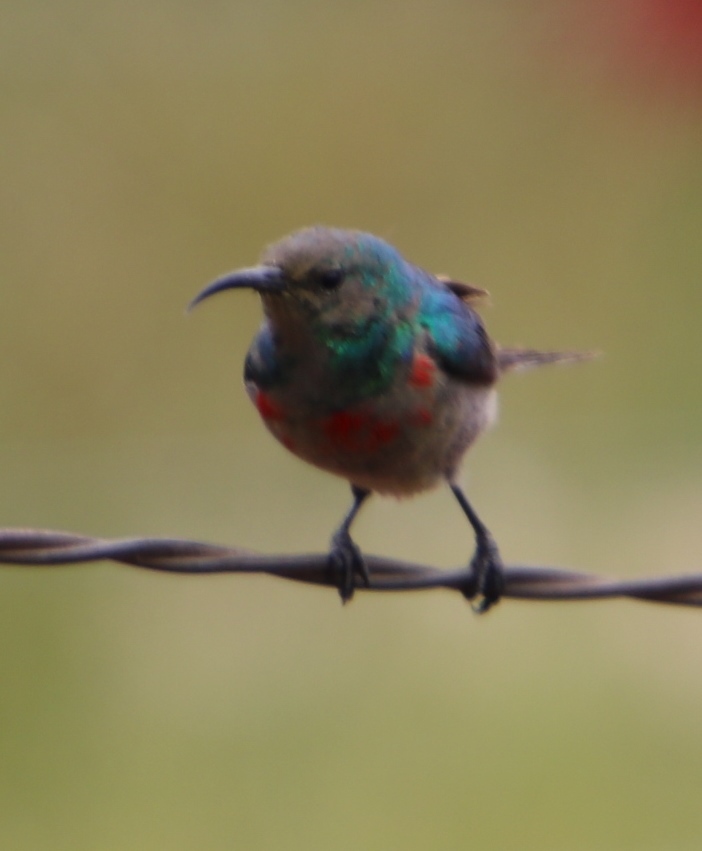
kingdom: Animalia
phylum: Chordata
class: Aves
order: Passeriformes
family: Nectariniidae
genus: Cinnyris
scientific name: Cinnyris chalybeus
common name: Southern double-collared sunbird
